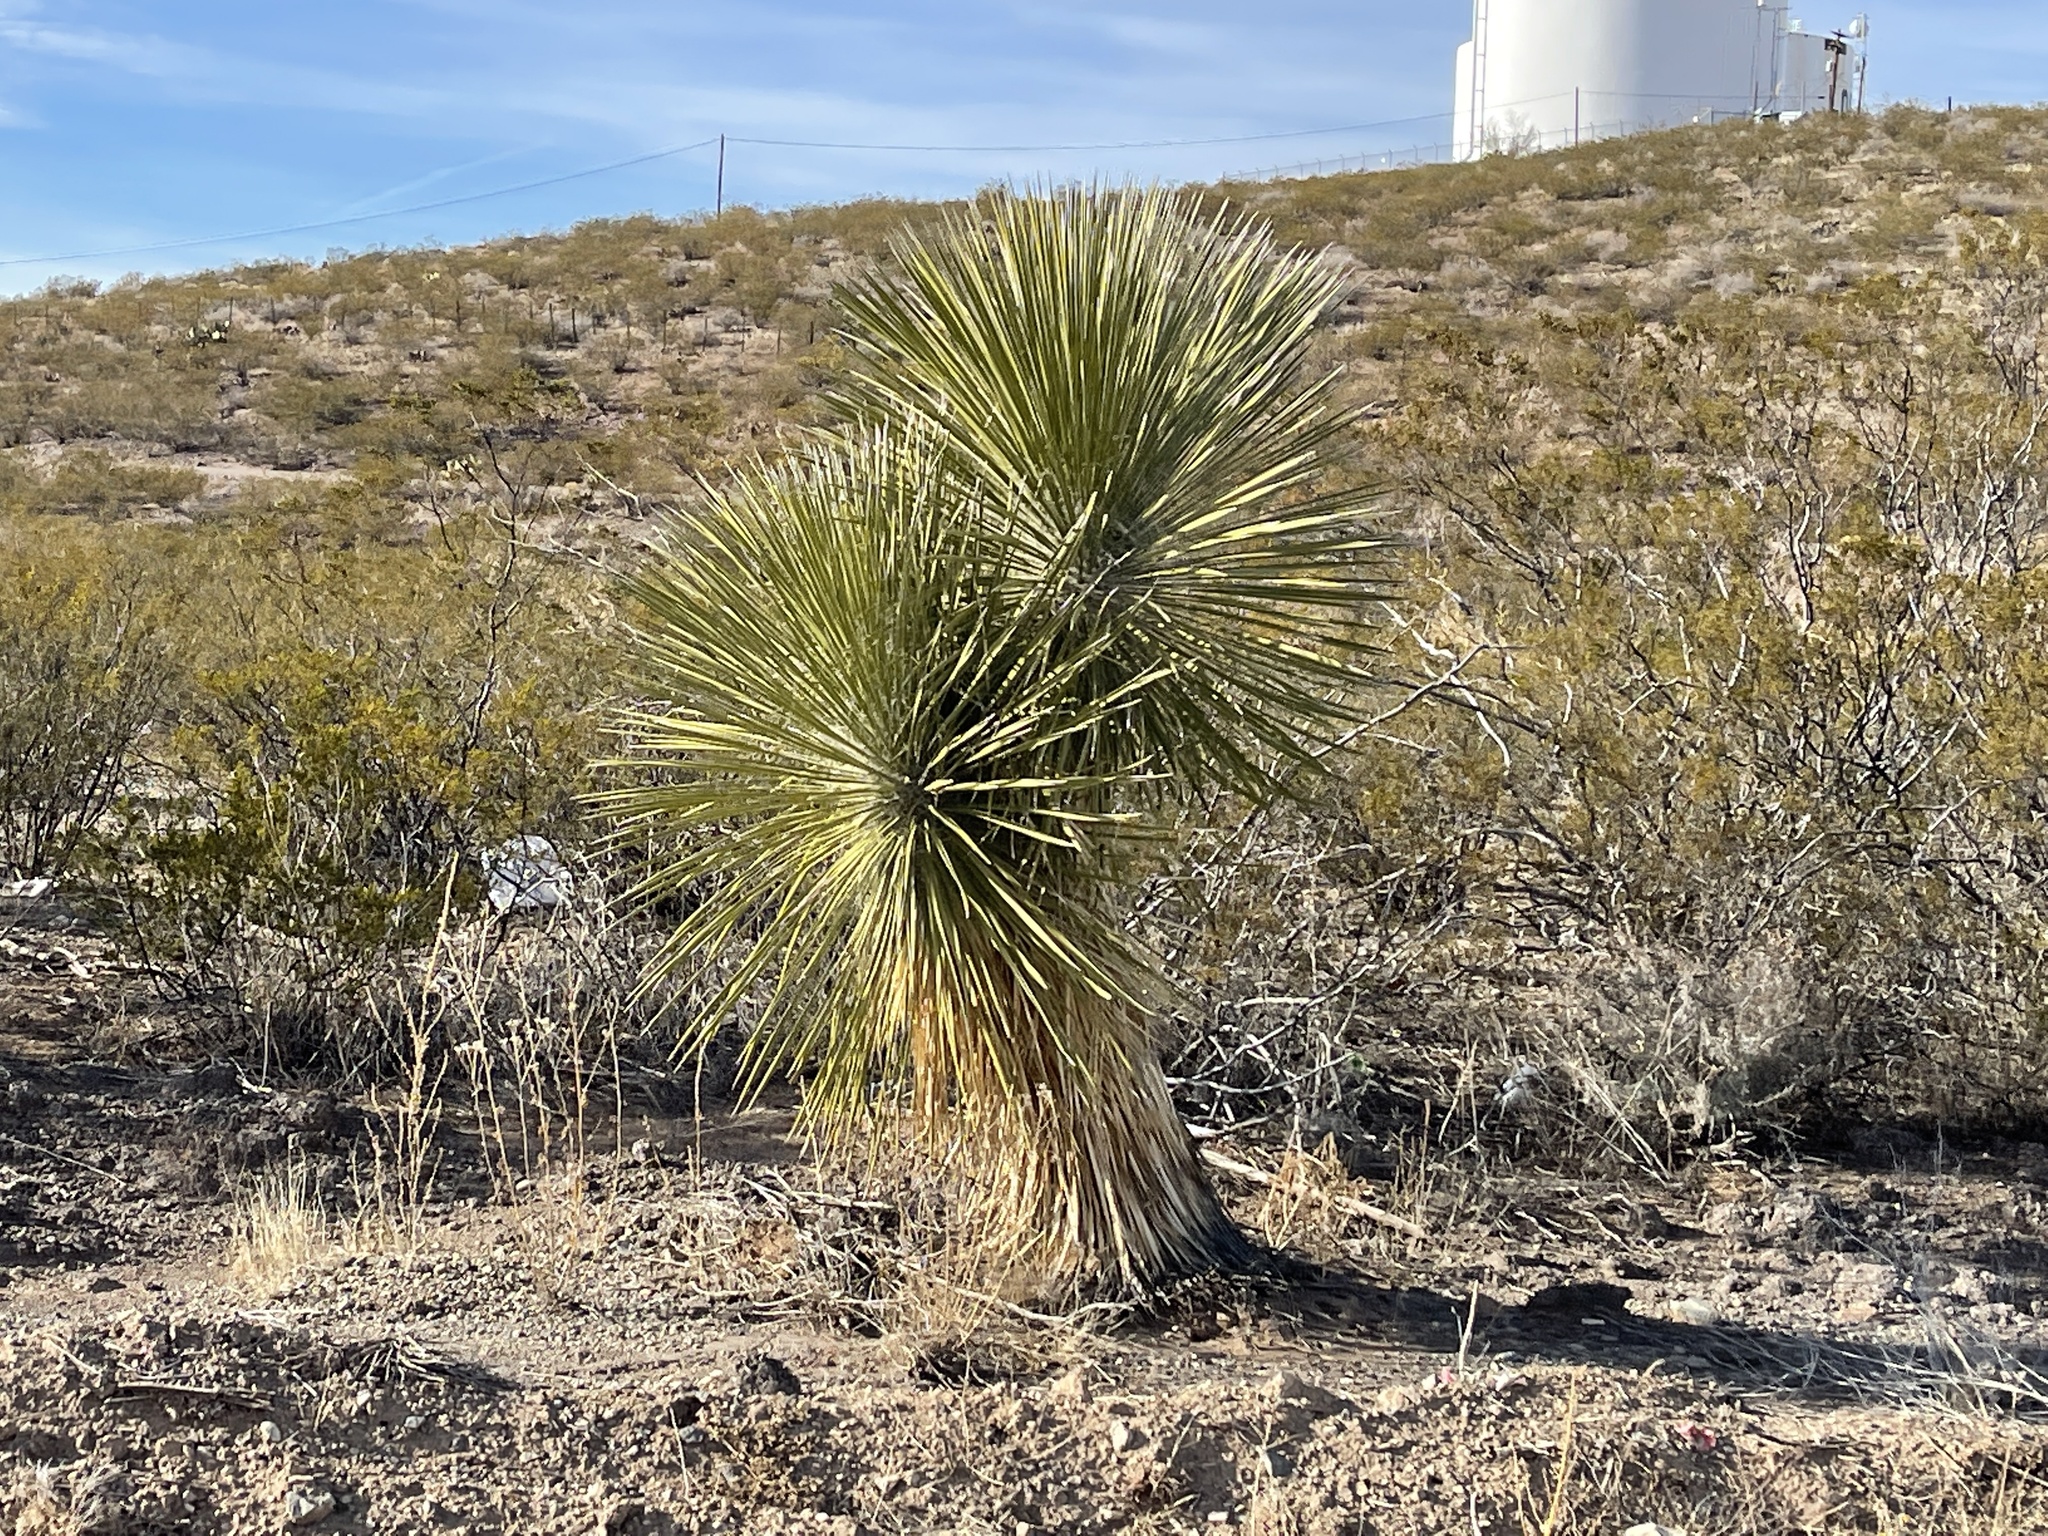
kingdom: Plantae
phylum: Tracheophyta
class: Liliopsida
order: Asparagales
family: Asparagaceae
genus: Yucca
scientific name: Yucca elata
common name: Palmella
